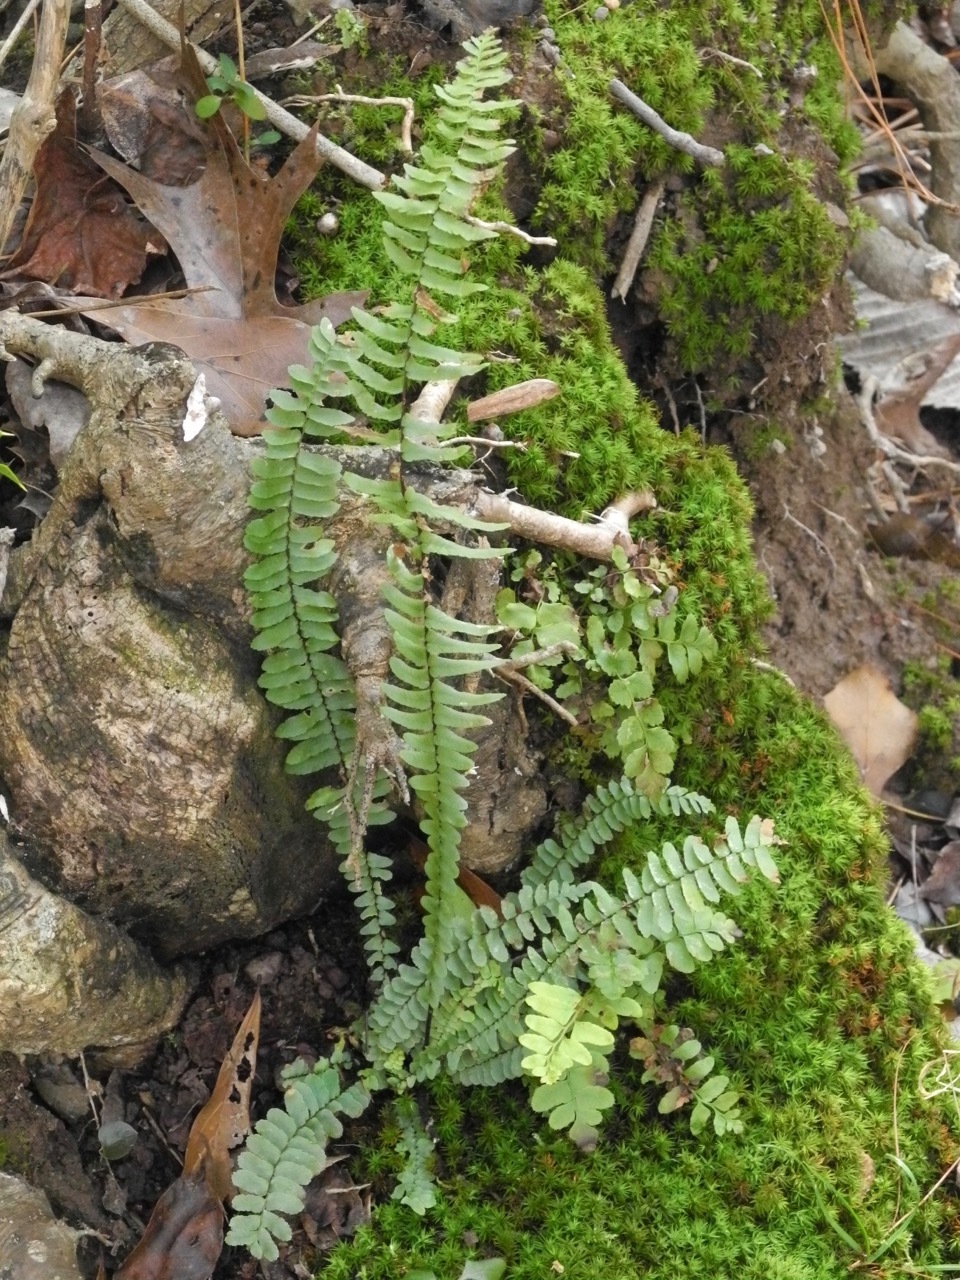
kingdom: Plantae
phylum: Tracheophyta
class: Polypodiopsida
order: Polypodiales
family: Aspleniaceae
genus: Asplenium
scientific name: Asplenium platyneuron
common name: Ebony spleenwort
